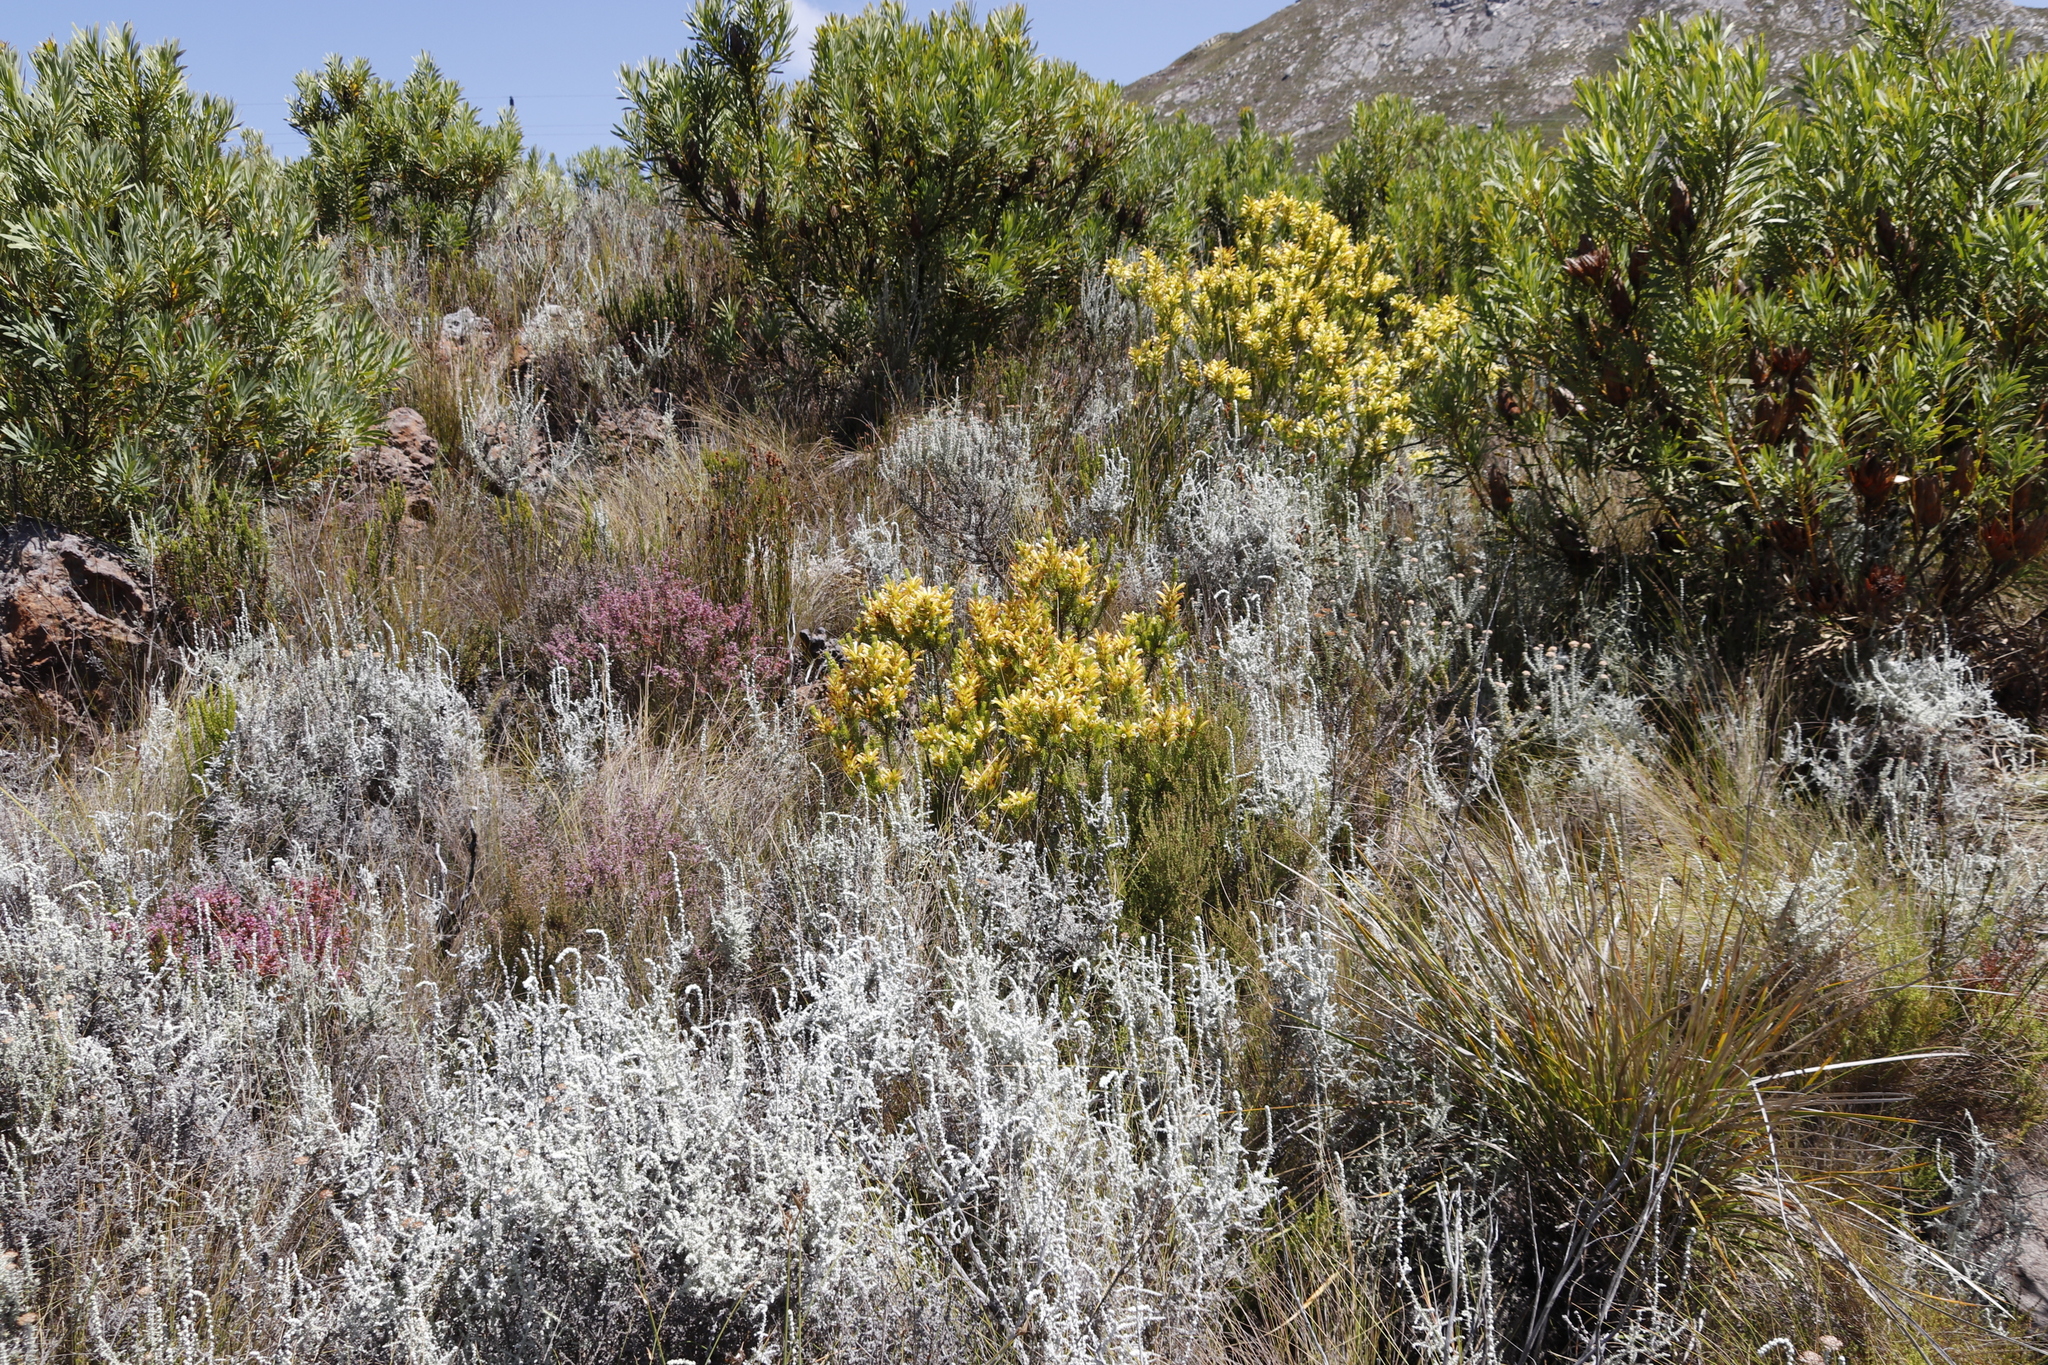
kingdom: Plantae
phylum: Tracheophyta
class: Magnoliopsida
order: Ericales
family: Ericaceae
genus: Erica
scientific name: Erica pinea
